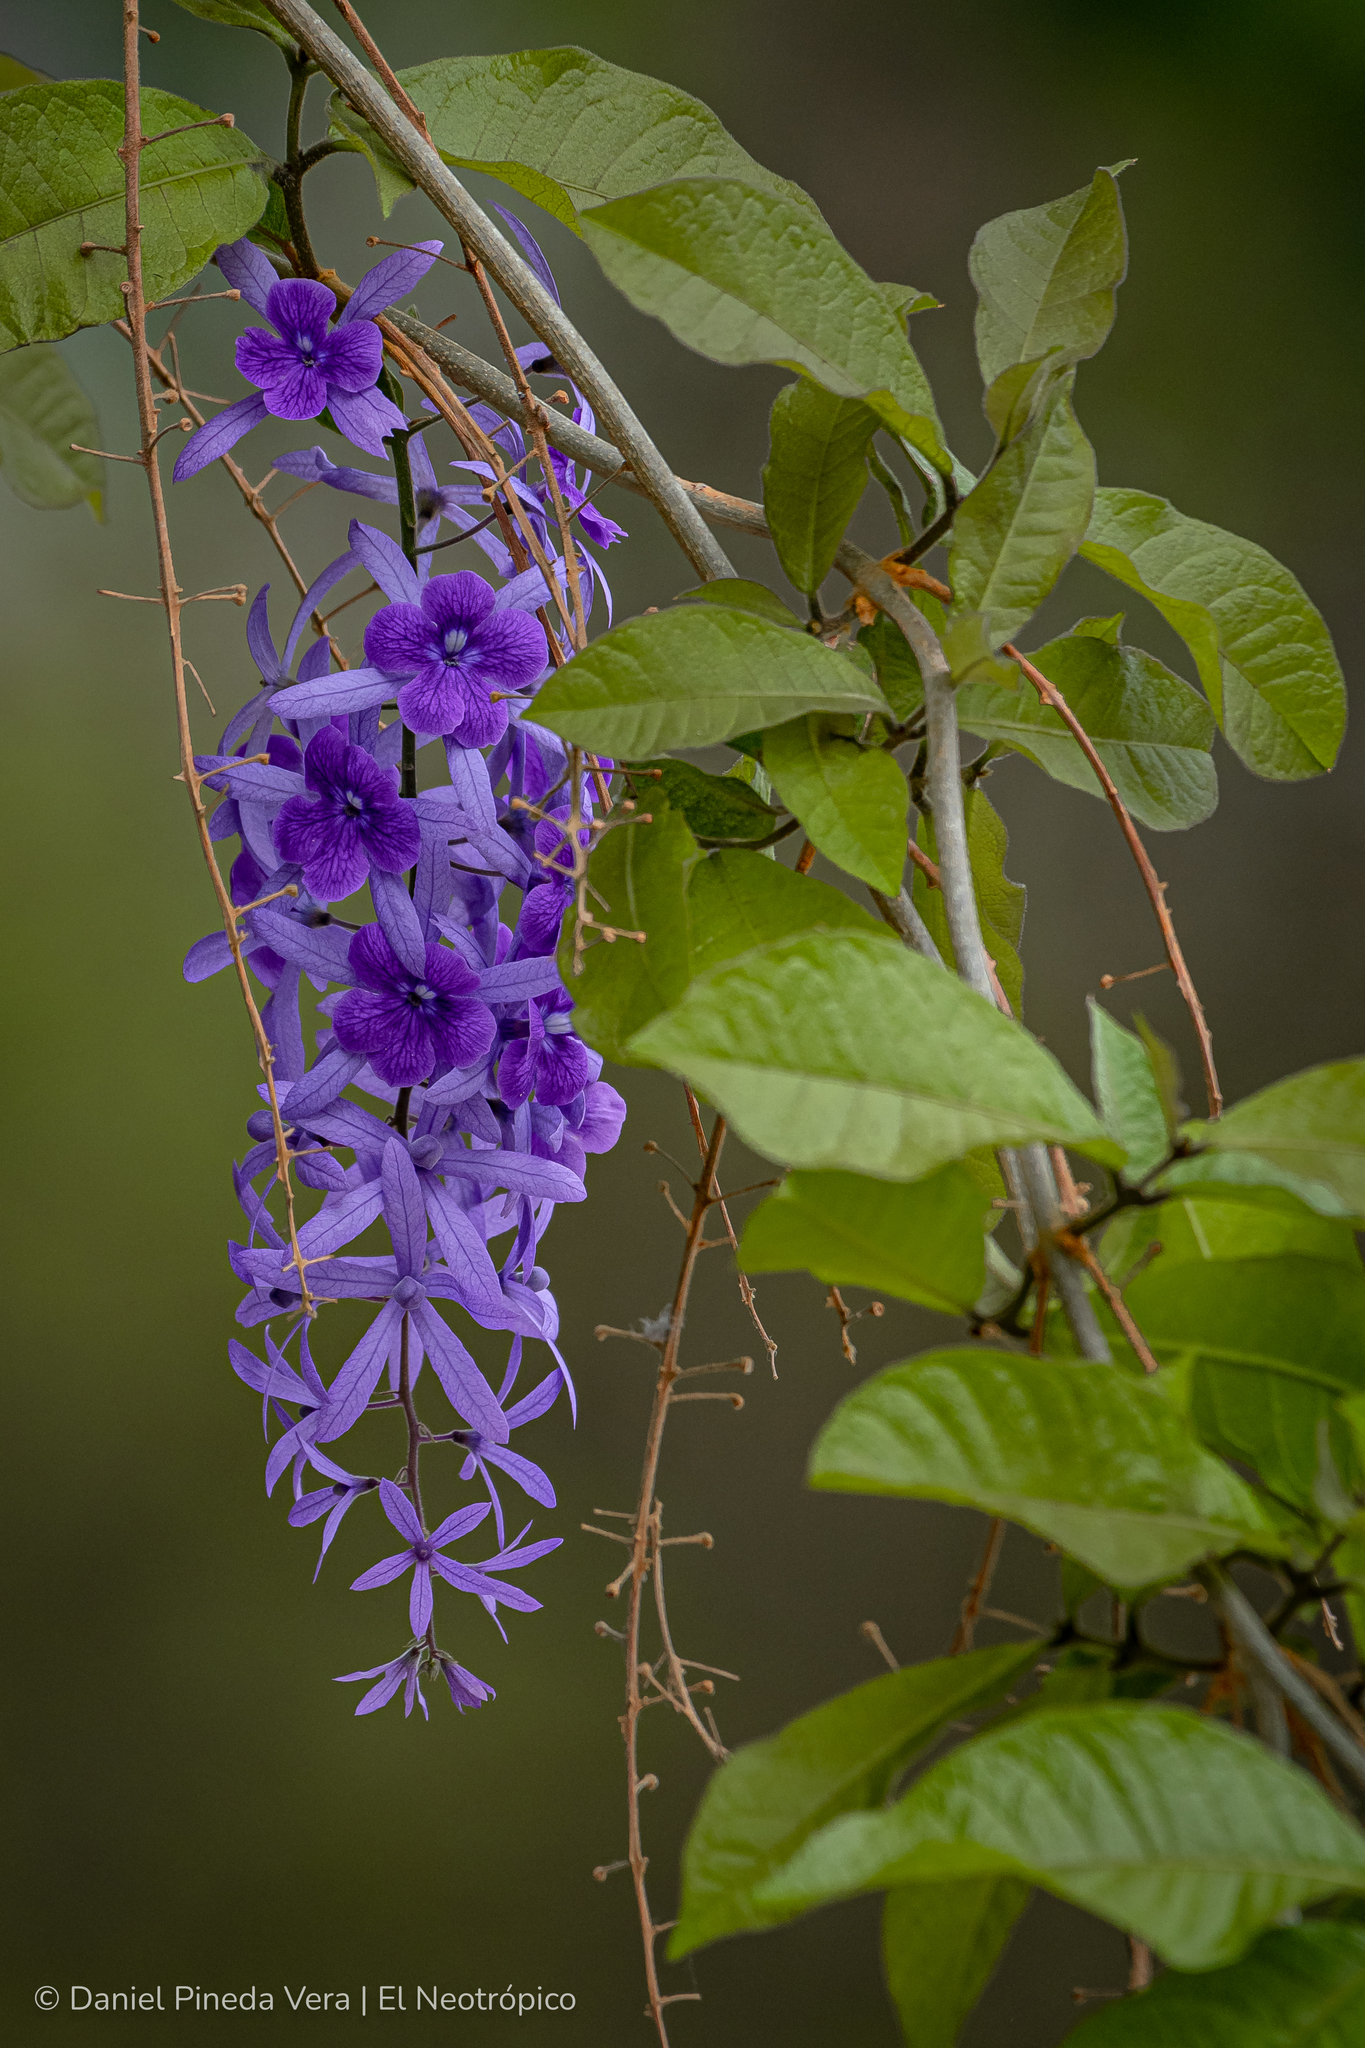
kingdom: Plantae
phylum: Tracheophyta
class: Magnoliopsida
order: Lamiales
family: Verbenaceae
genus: Petrea
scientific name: Petrea volubilis
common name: Queen's-wreath
